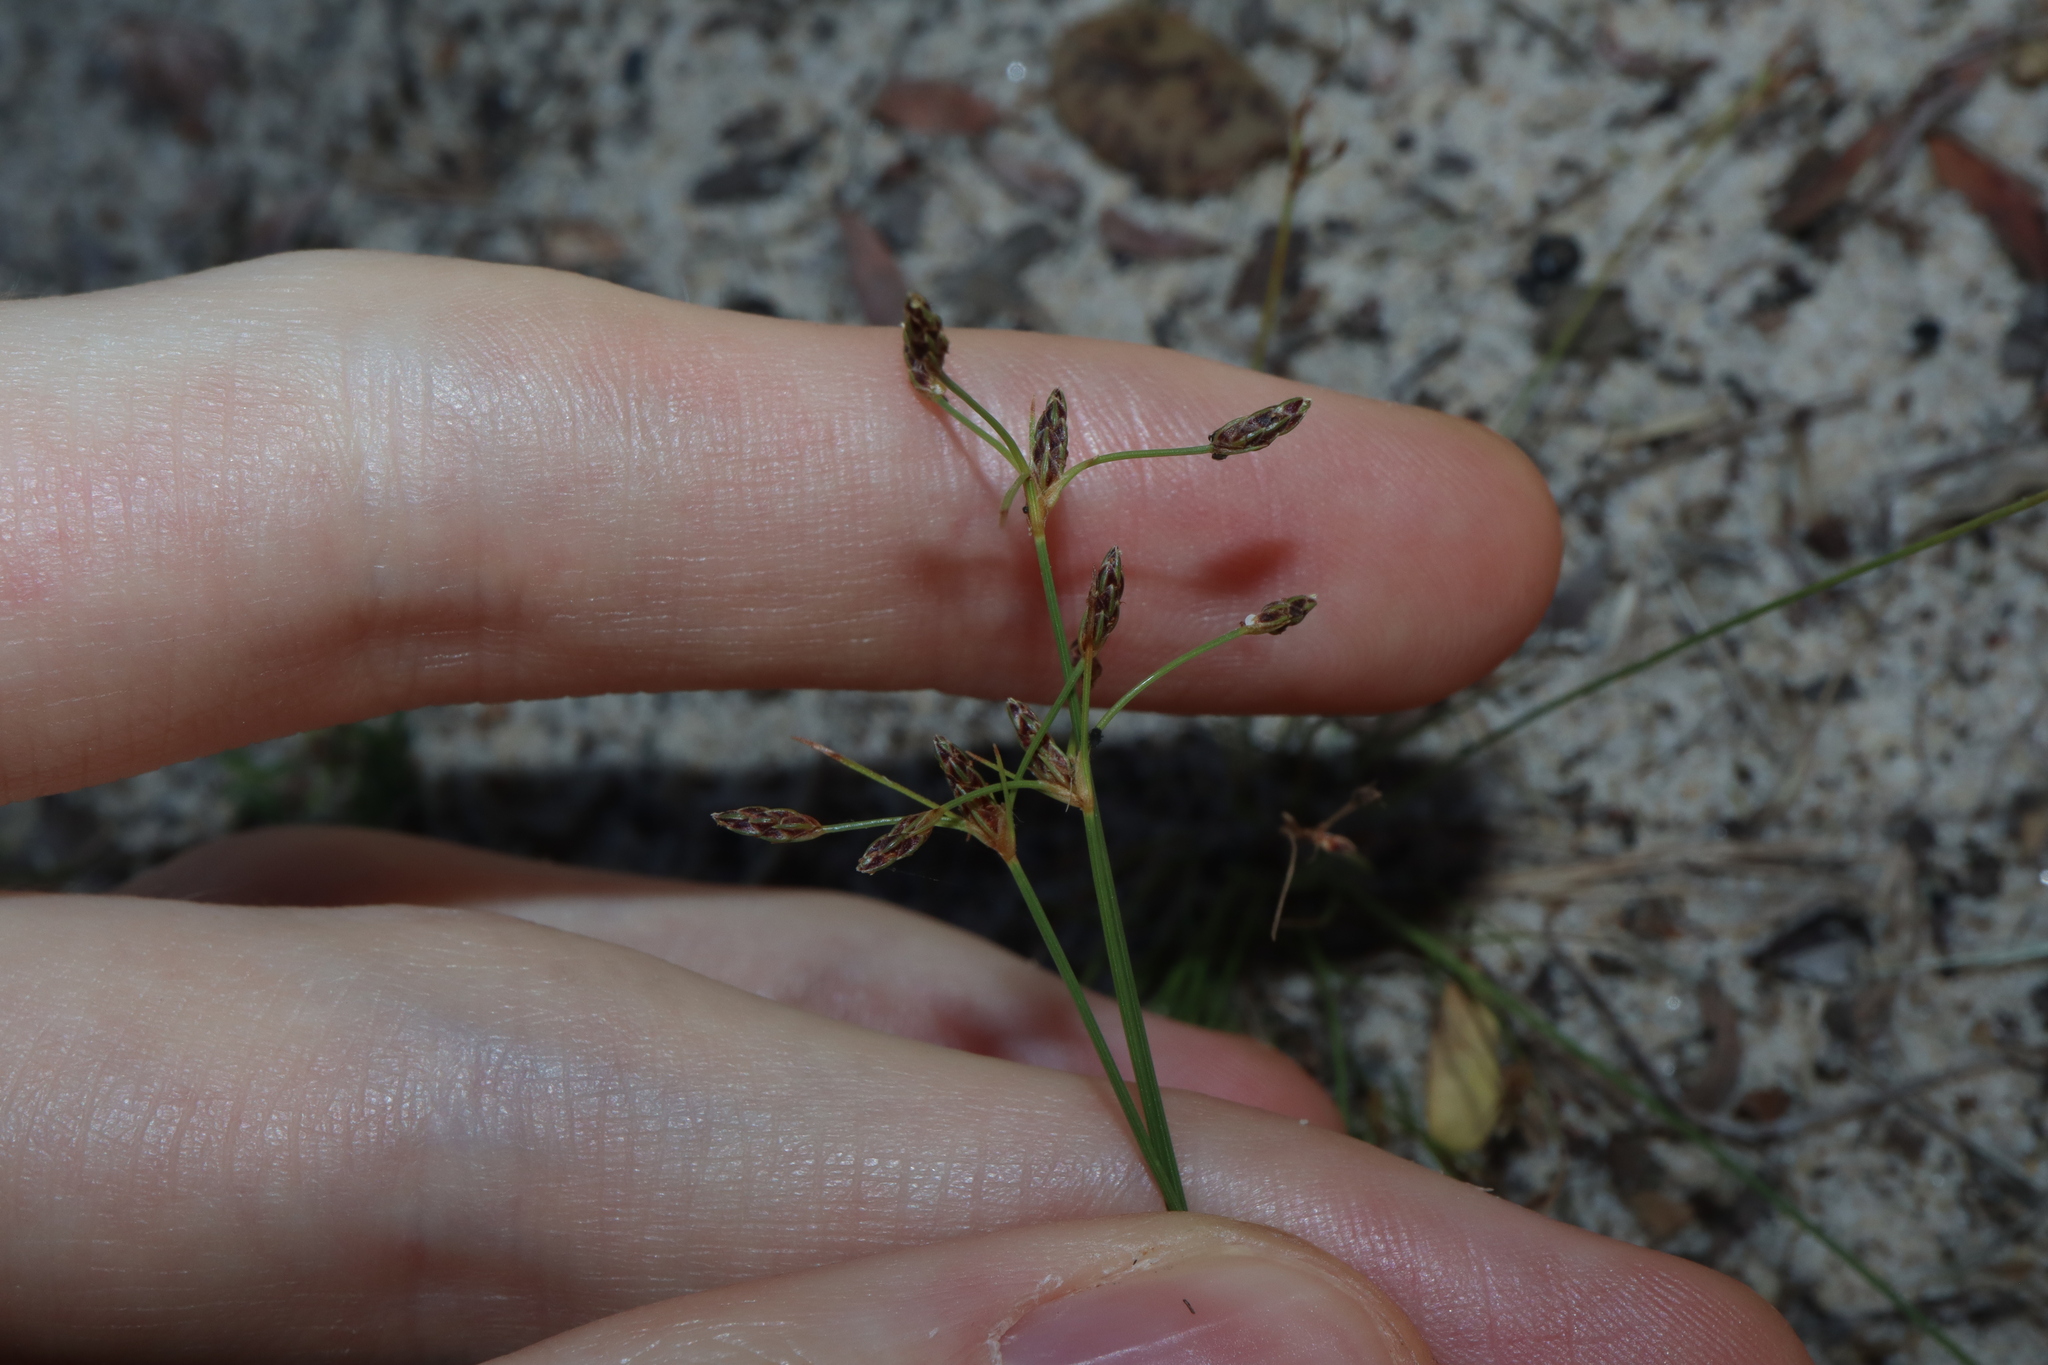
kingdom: Plantae
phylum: Tracheophyta
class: Liliopsida
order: Poales
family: Cyperaceae
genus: Fimbristylis
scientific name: Fimbristylis dichotoma
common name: Forked fimbry
